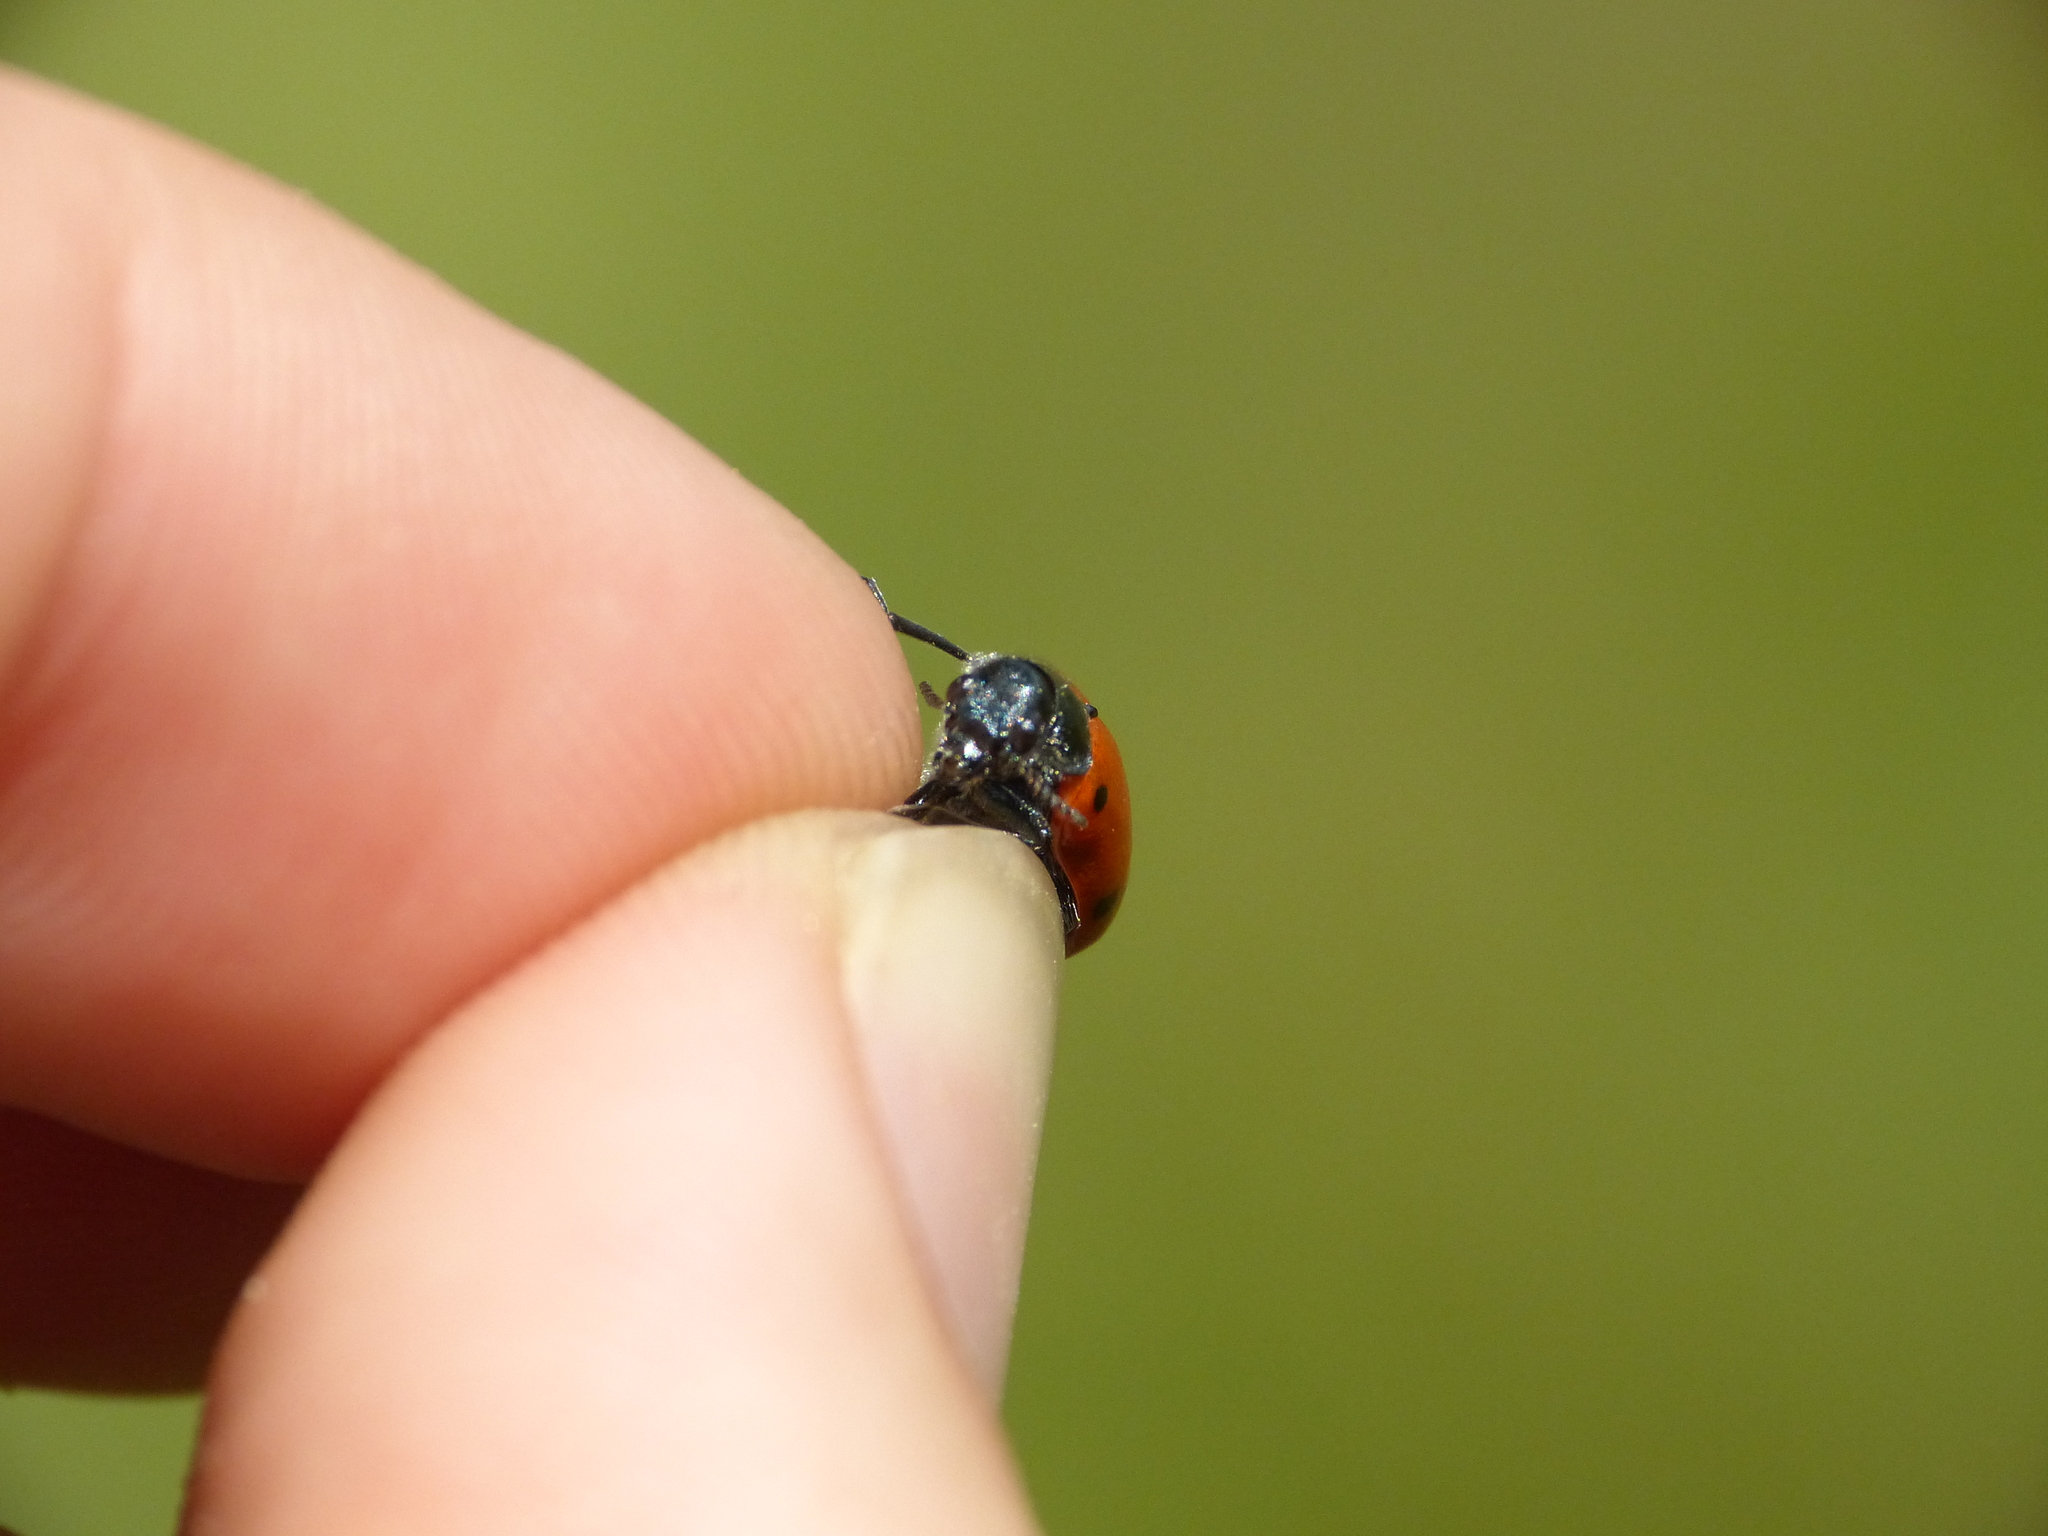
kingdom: Animalia
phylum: Arthropoda
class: Insecta
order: Coleoptera
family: Chrysomelidae
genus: Lachnaia
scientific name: Lachnaia pubescens
